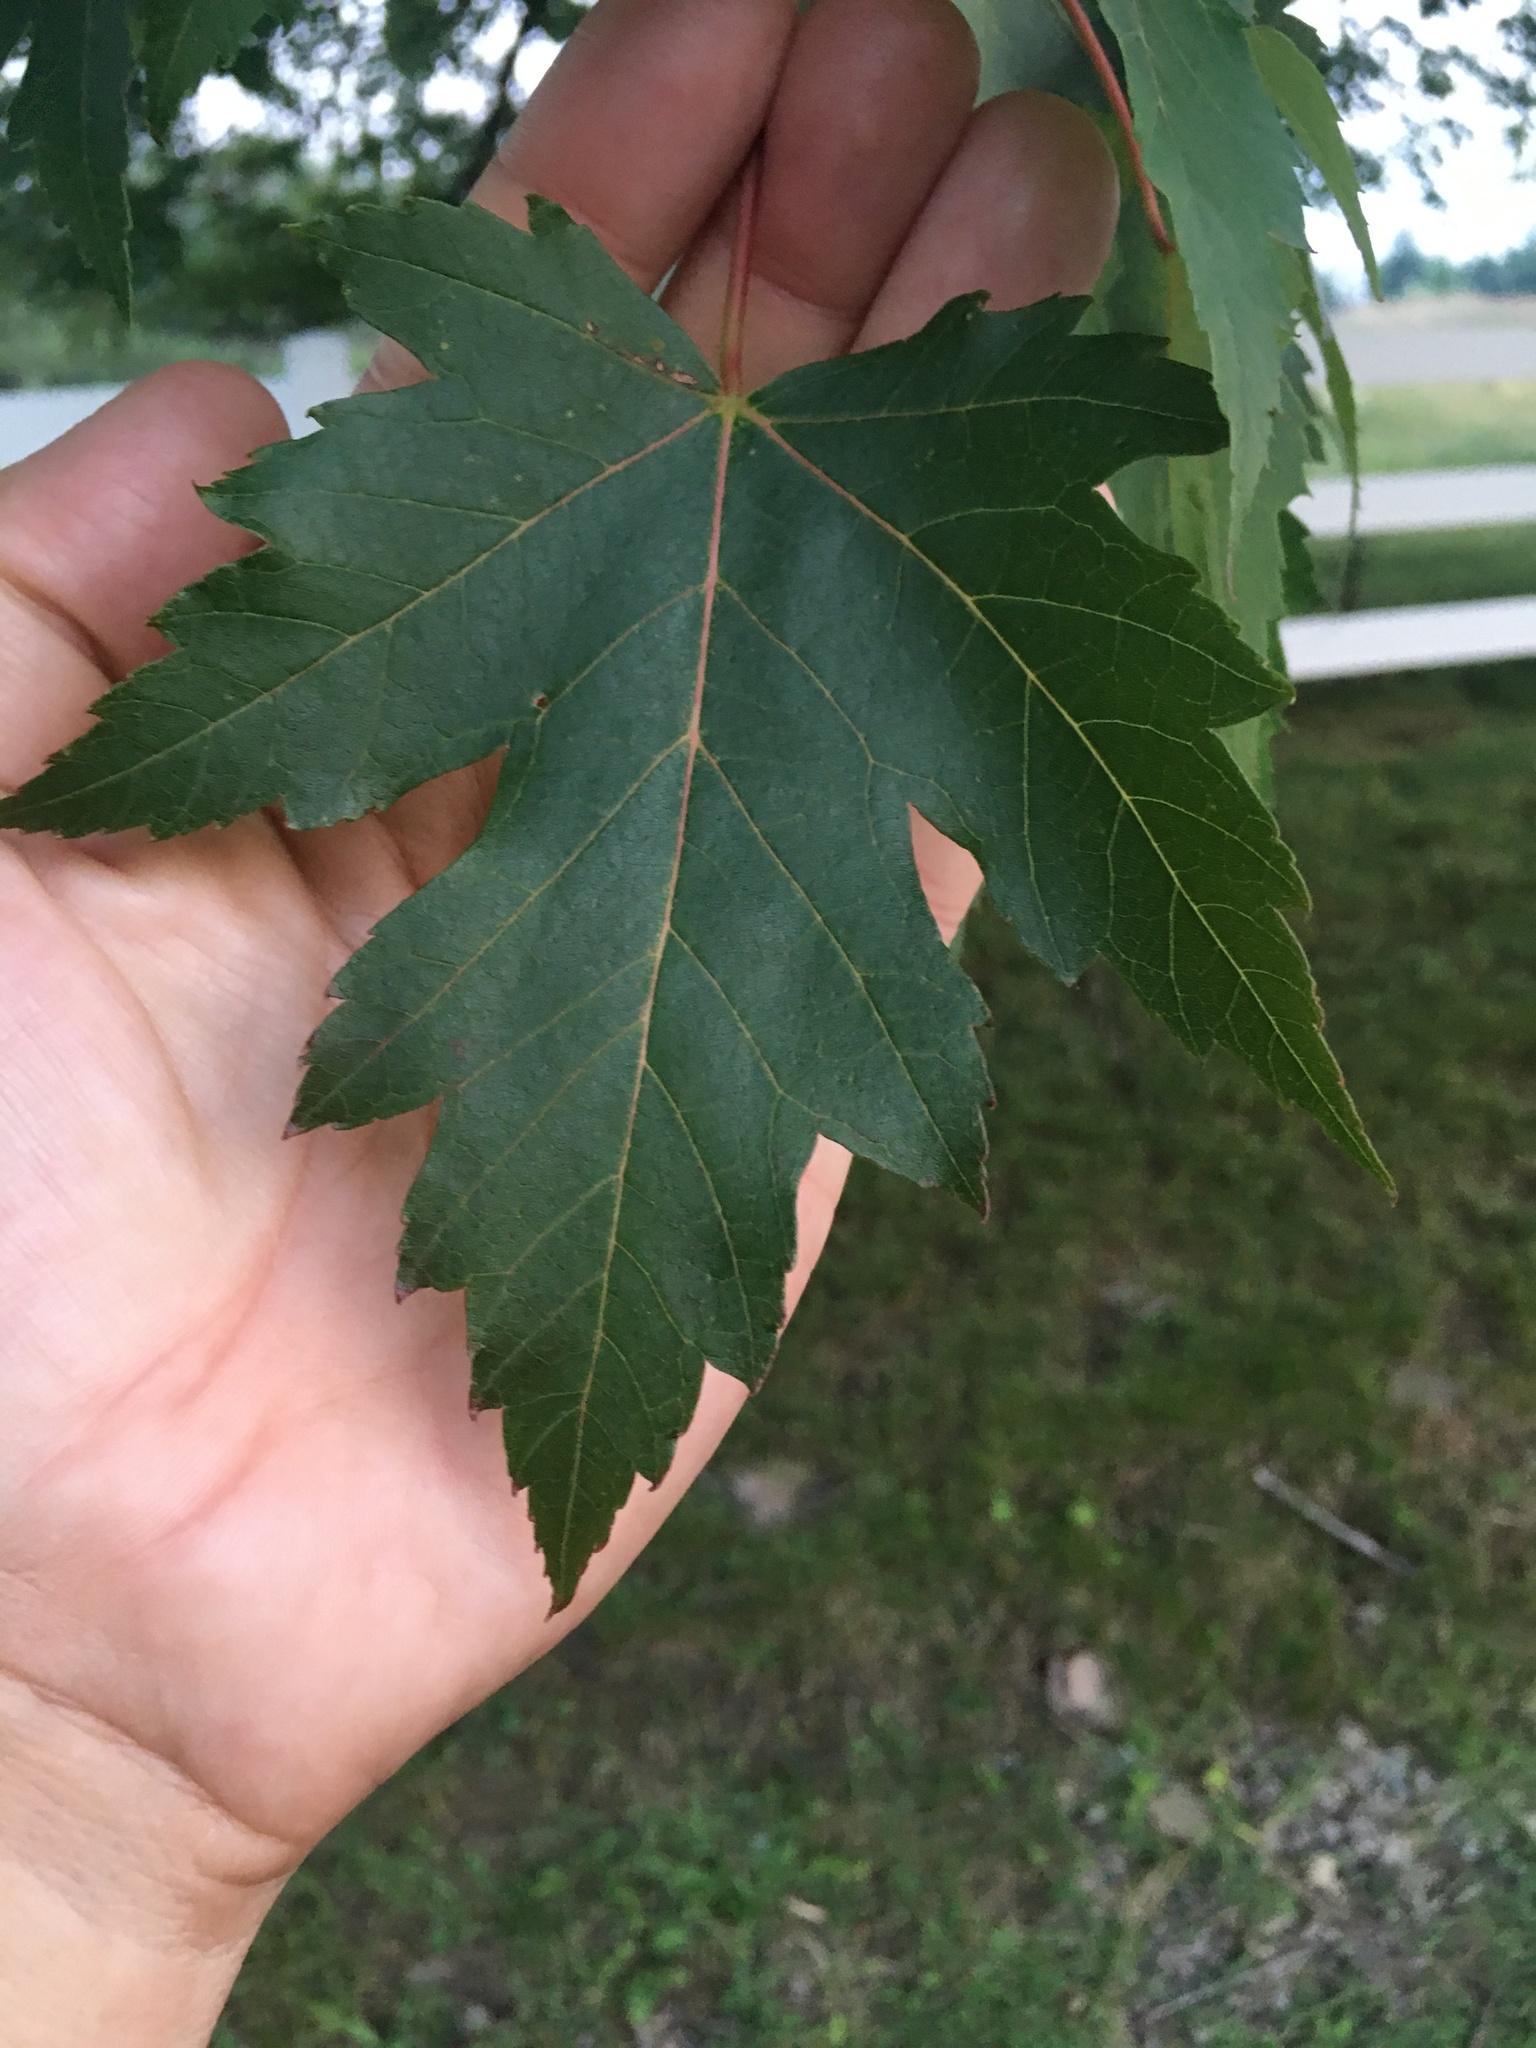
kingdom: Plantae
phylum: Tracheophyta
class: Magnoliopsida
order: Sapindales
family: Sapindaceae
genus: Acer
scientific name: Acer freemanii
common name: Freeman maple
